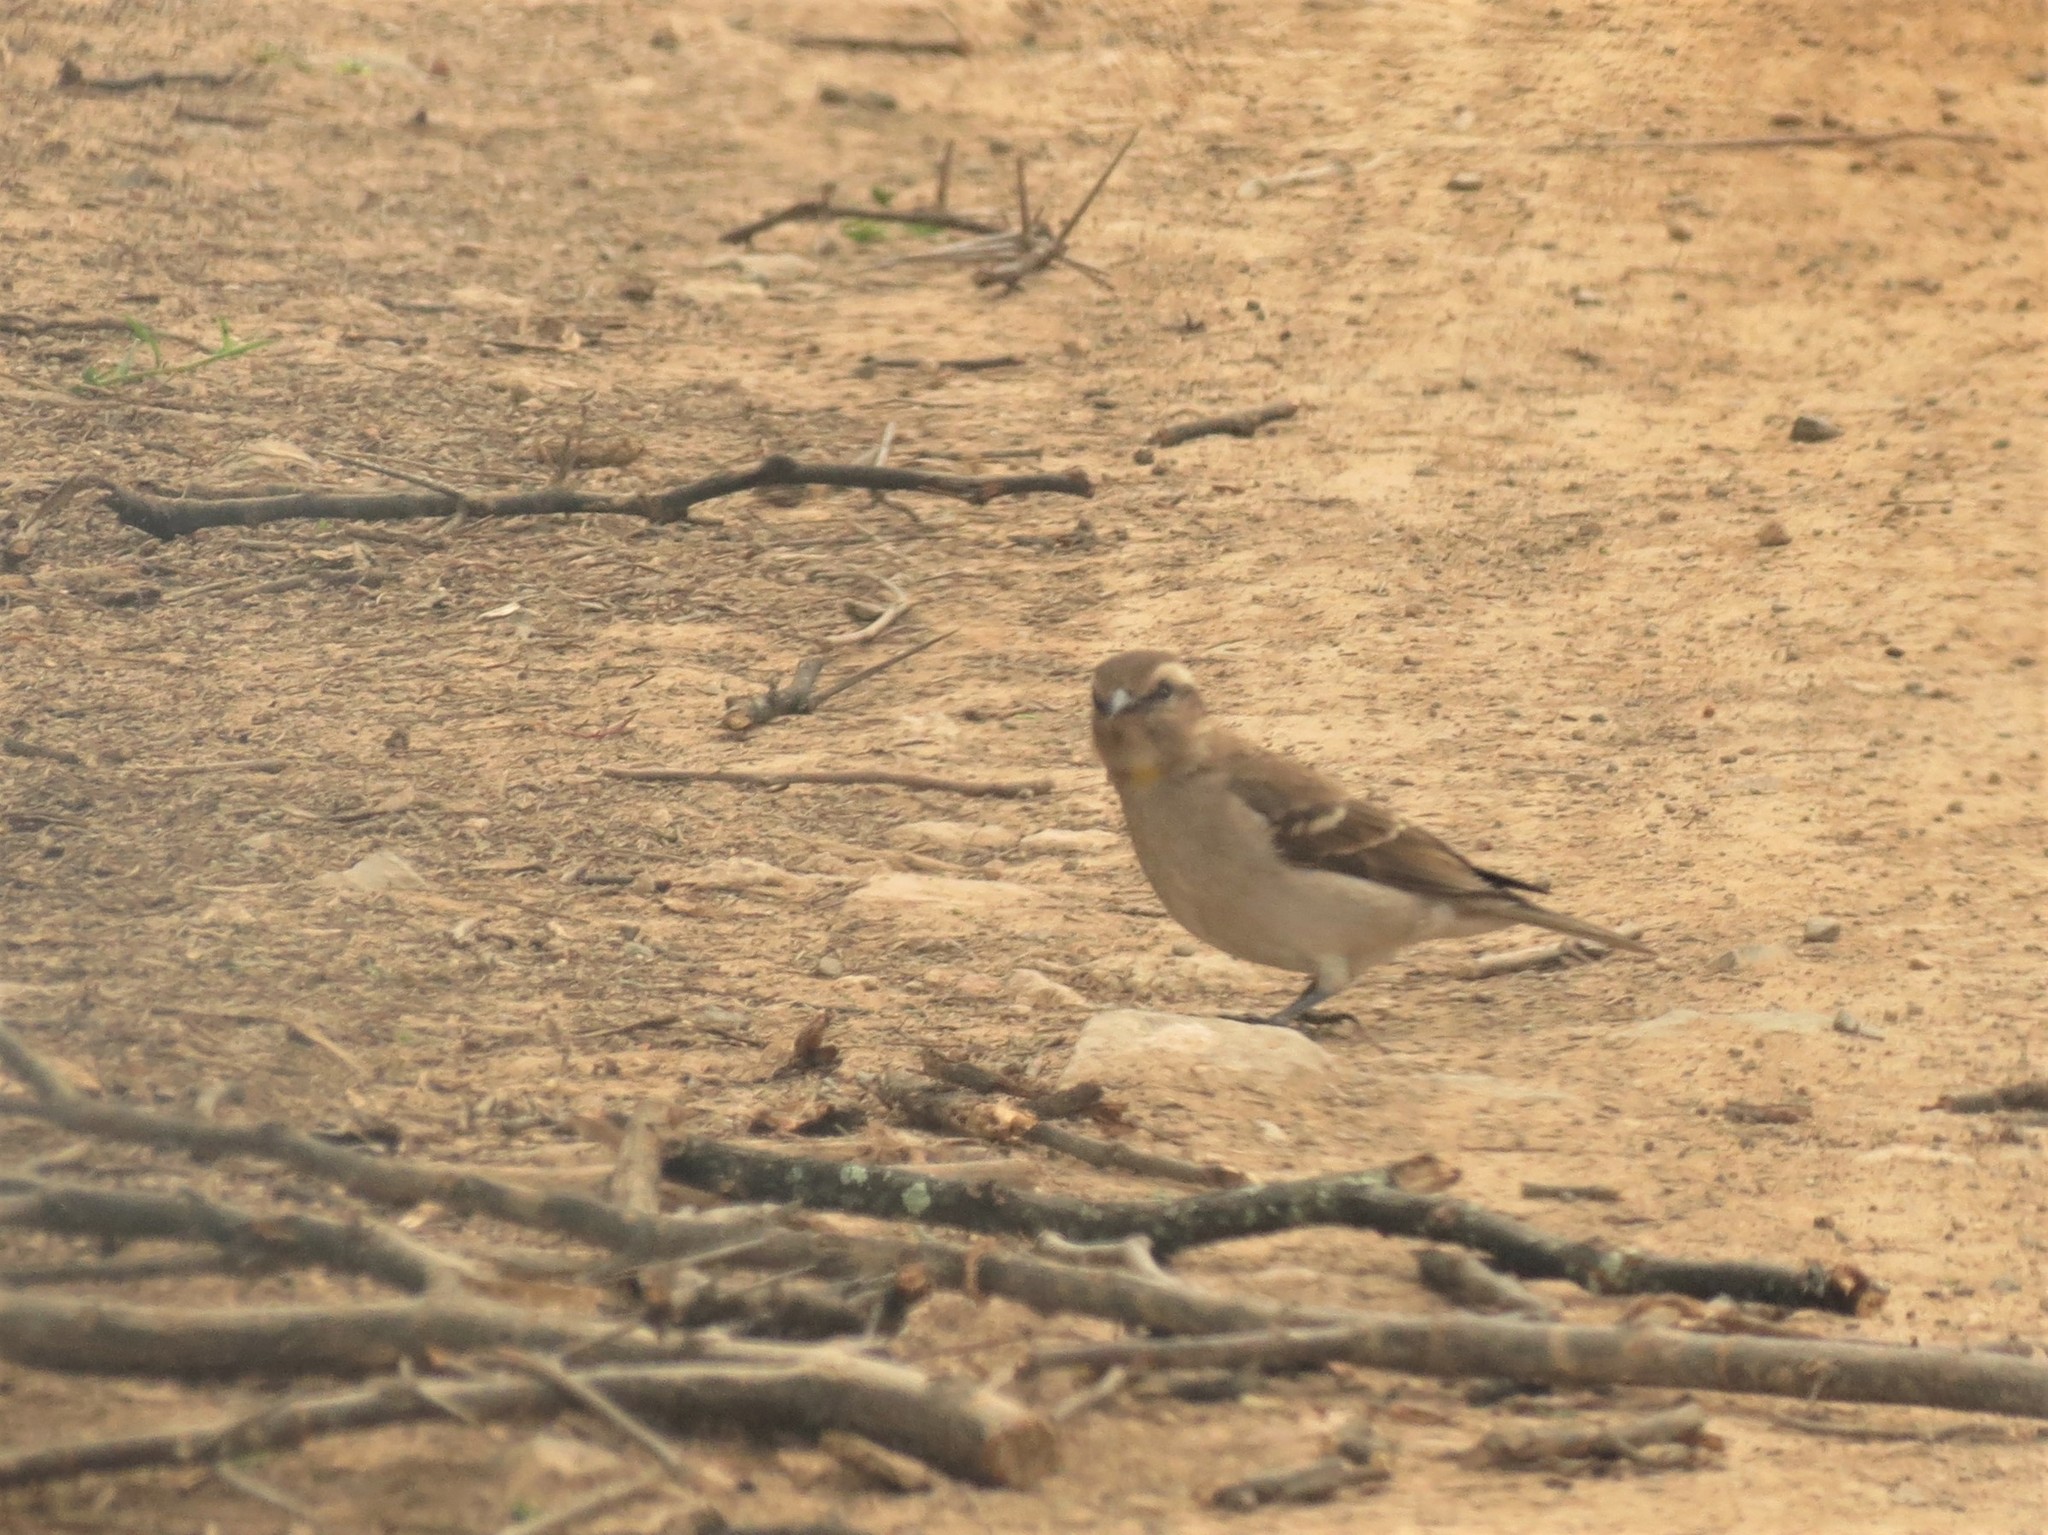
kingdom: Animalia
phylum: Chordata
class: Aves
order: Passeriformes
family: Passeridae
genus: Gymnoris
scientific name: Gymnoris superciliaris
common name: Yellow-throated petronia
